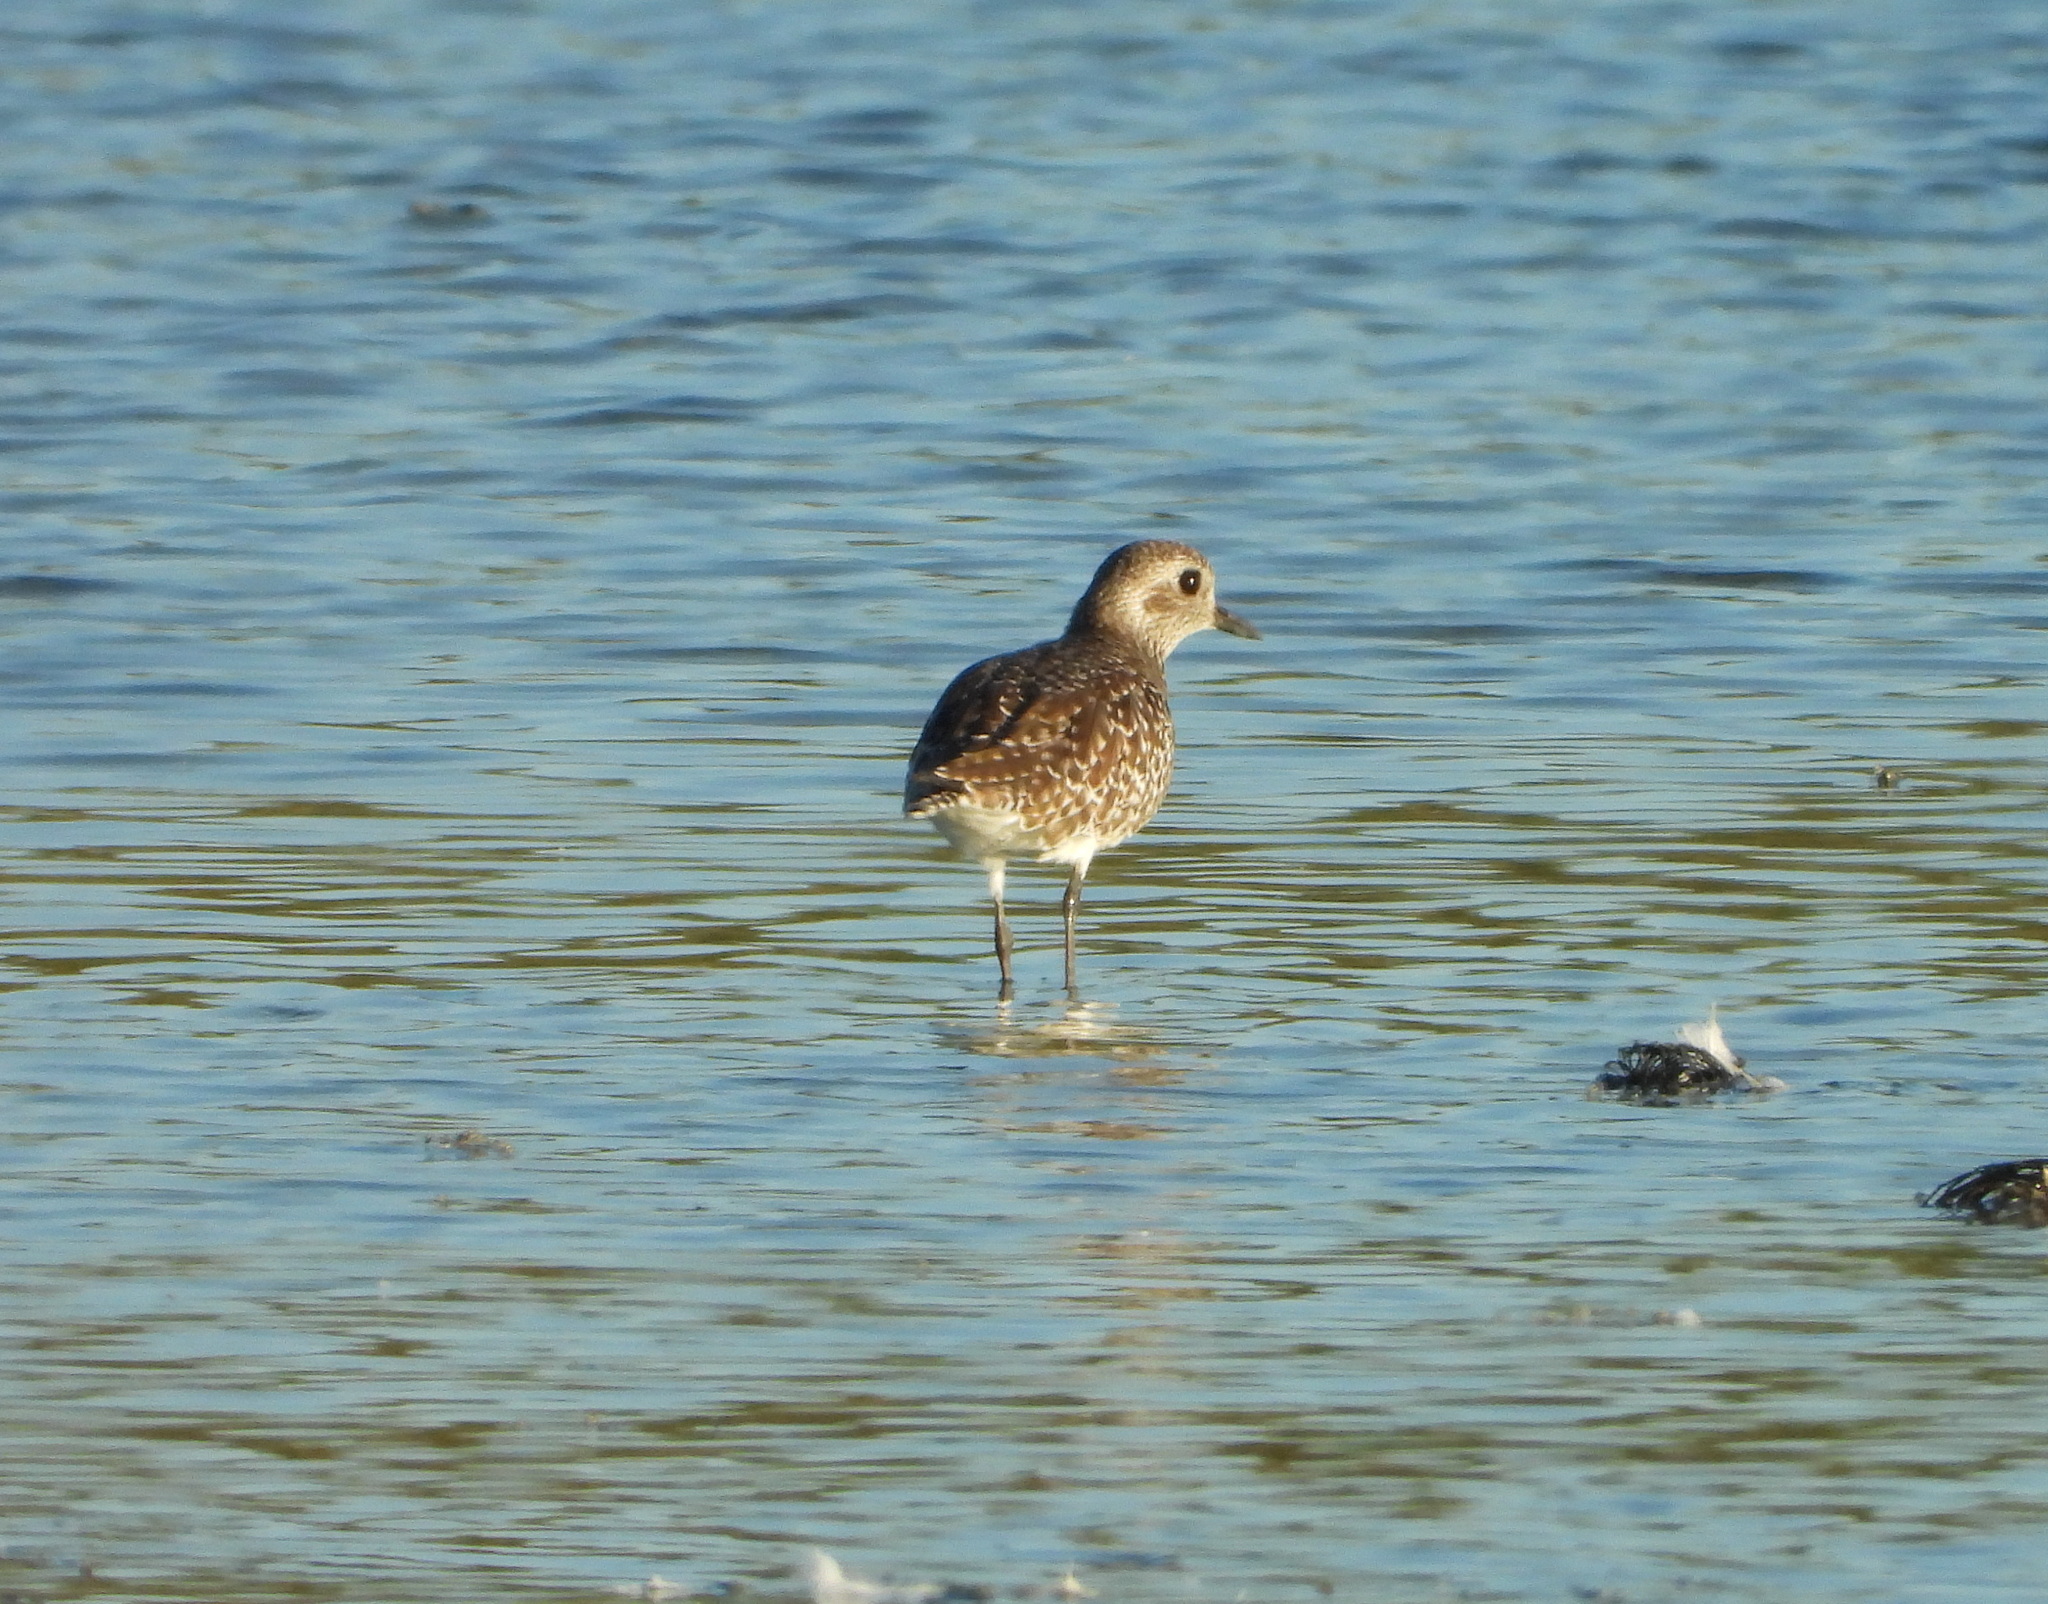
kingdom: Animalia
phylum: Chordata
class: Aves
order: Charadriiformes
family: Charadriidae
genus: Pluvialis
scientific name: Pluvialis squatarola
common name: Grey plover
